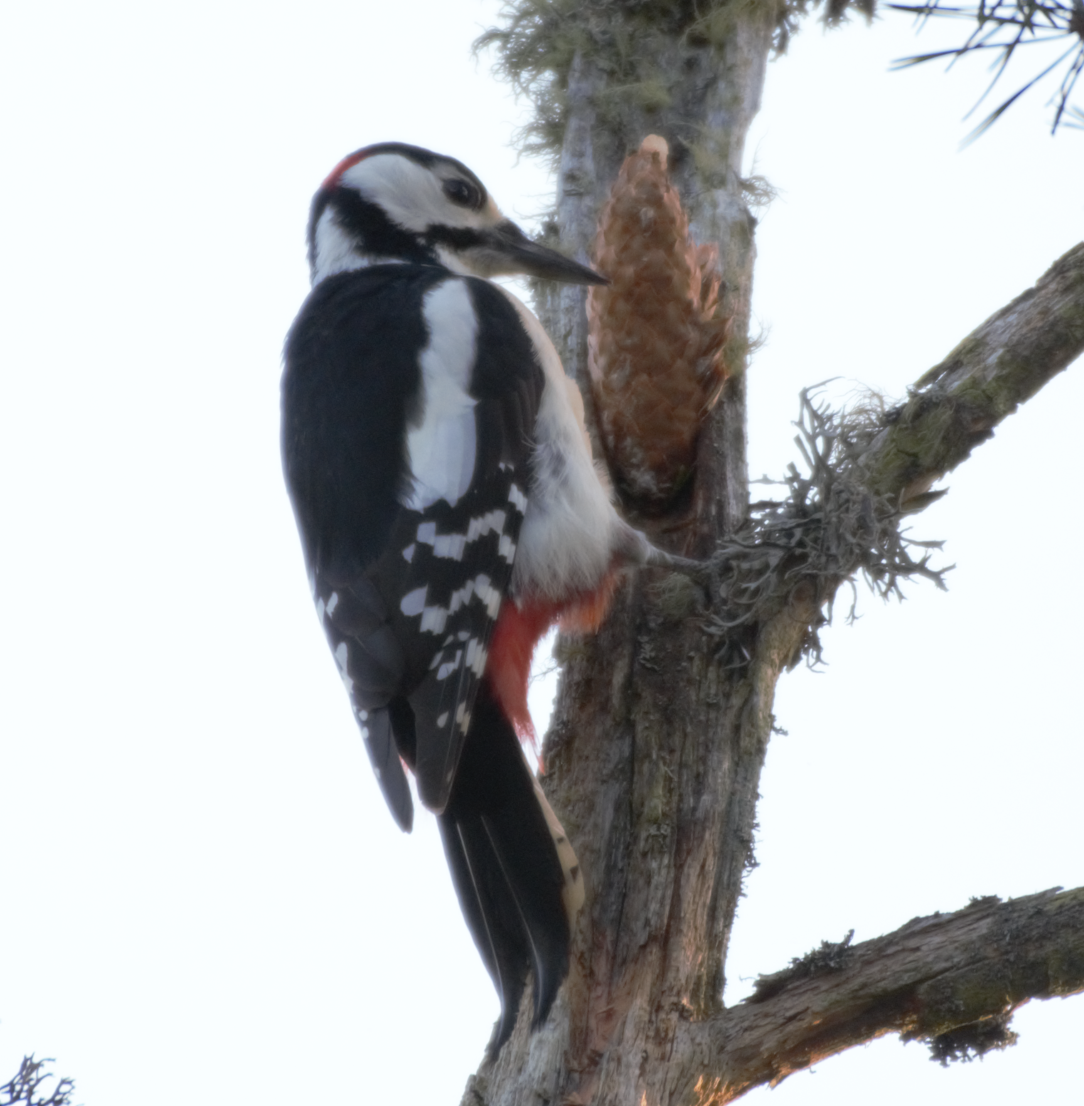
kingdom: Animalia
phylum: Chordata
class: Aves
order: Piciformes
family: Picidae
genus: Dendrocopos
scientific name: Dendrocopos major
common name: Great spotted woodpecker
